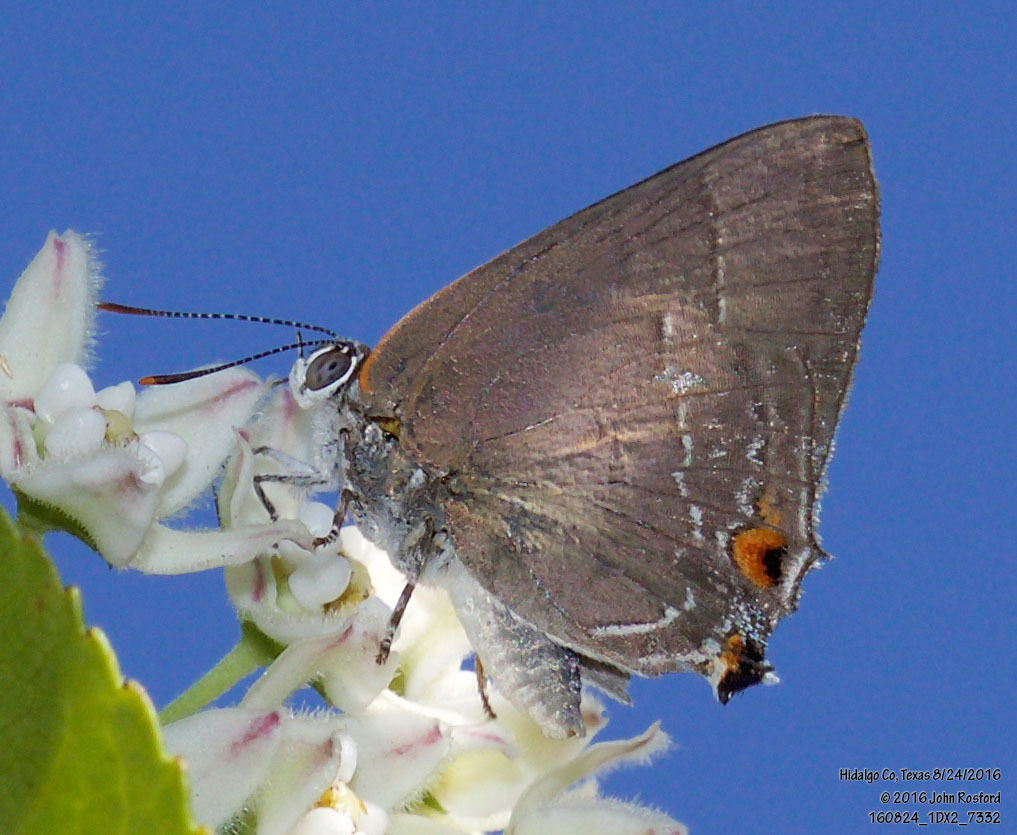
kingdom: Animalia
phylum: Arthropoda
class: Insecta
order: Lepidoptera
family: Lycaenidae
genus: Thecla
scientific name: Thecla marius
